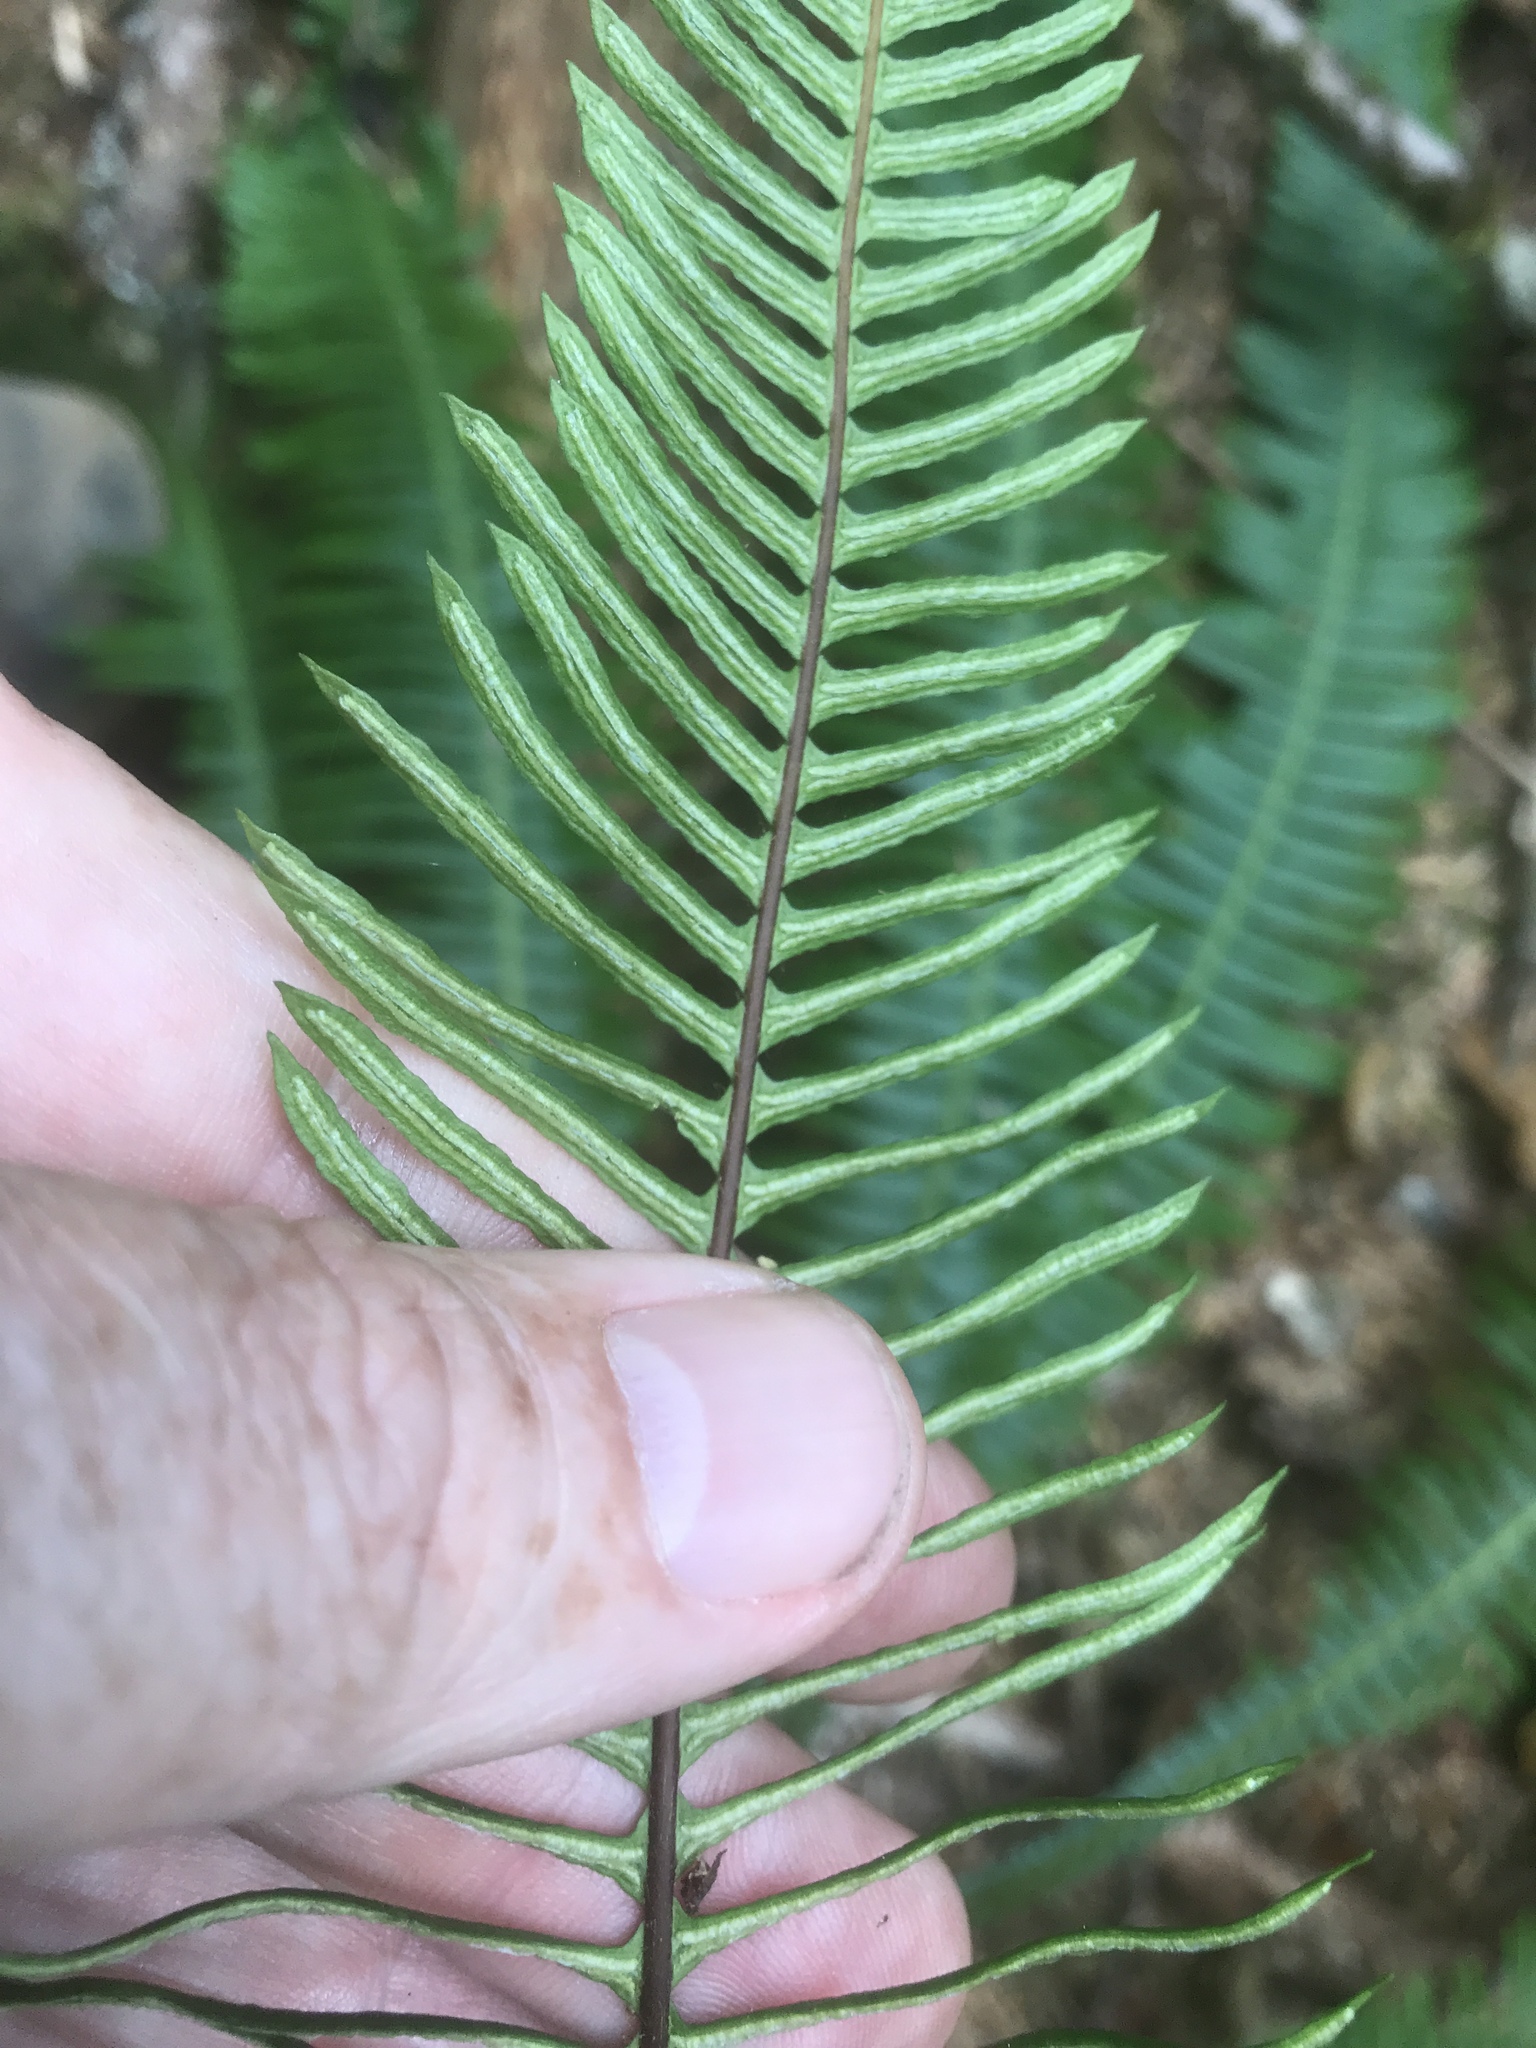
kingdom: Plantae
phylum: Tracheophyta
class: Polypodiopsida
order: Polypodiales
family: Blechnaceae
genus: Struthiopteris
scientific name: Struthiopteris spicant
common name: Deer fern
